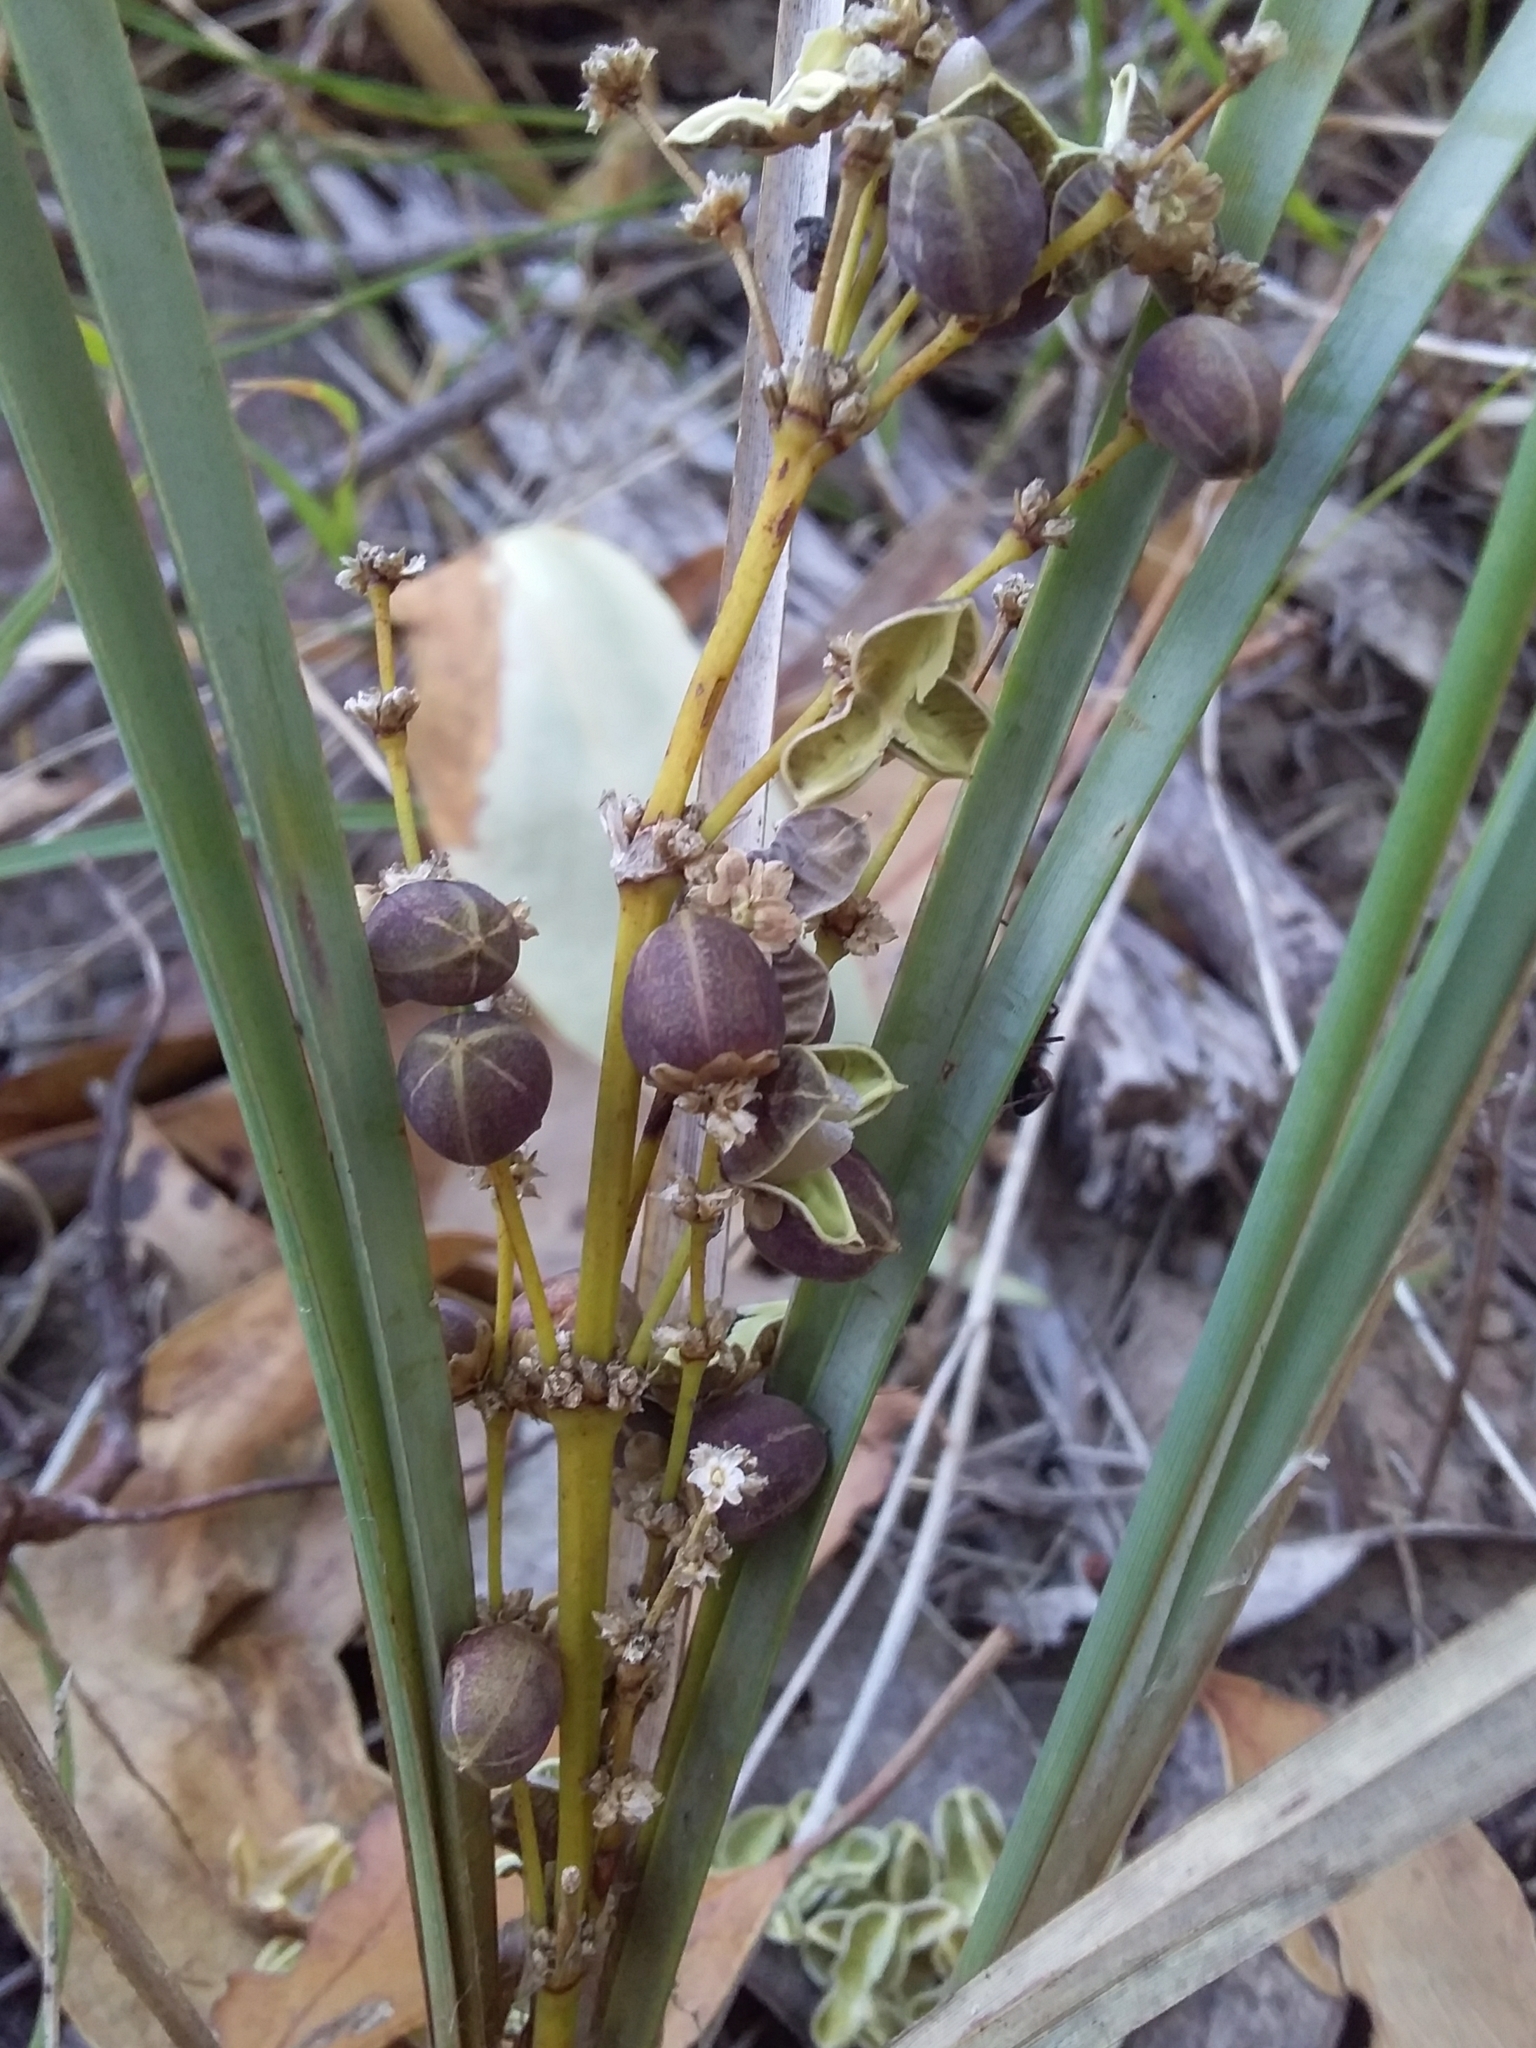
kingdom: Plantae
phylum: Tracheophyta
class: Liliopsida
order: Asparagales
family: Asparagaceae
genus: Lomandra
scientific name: Lomandra multiflora
